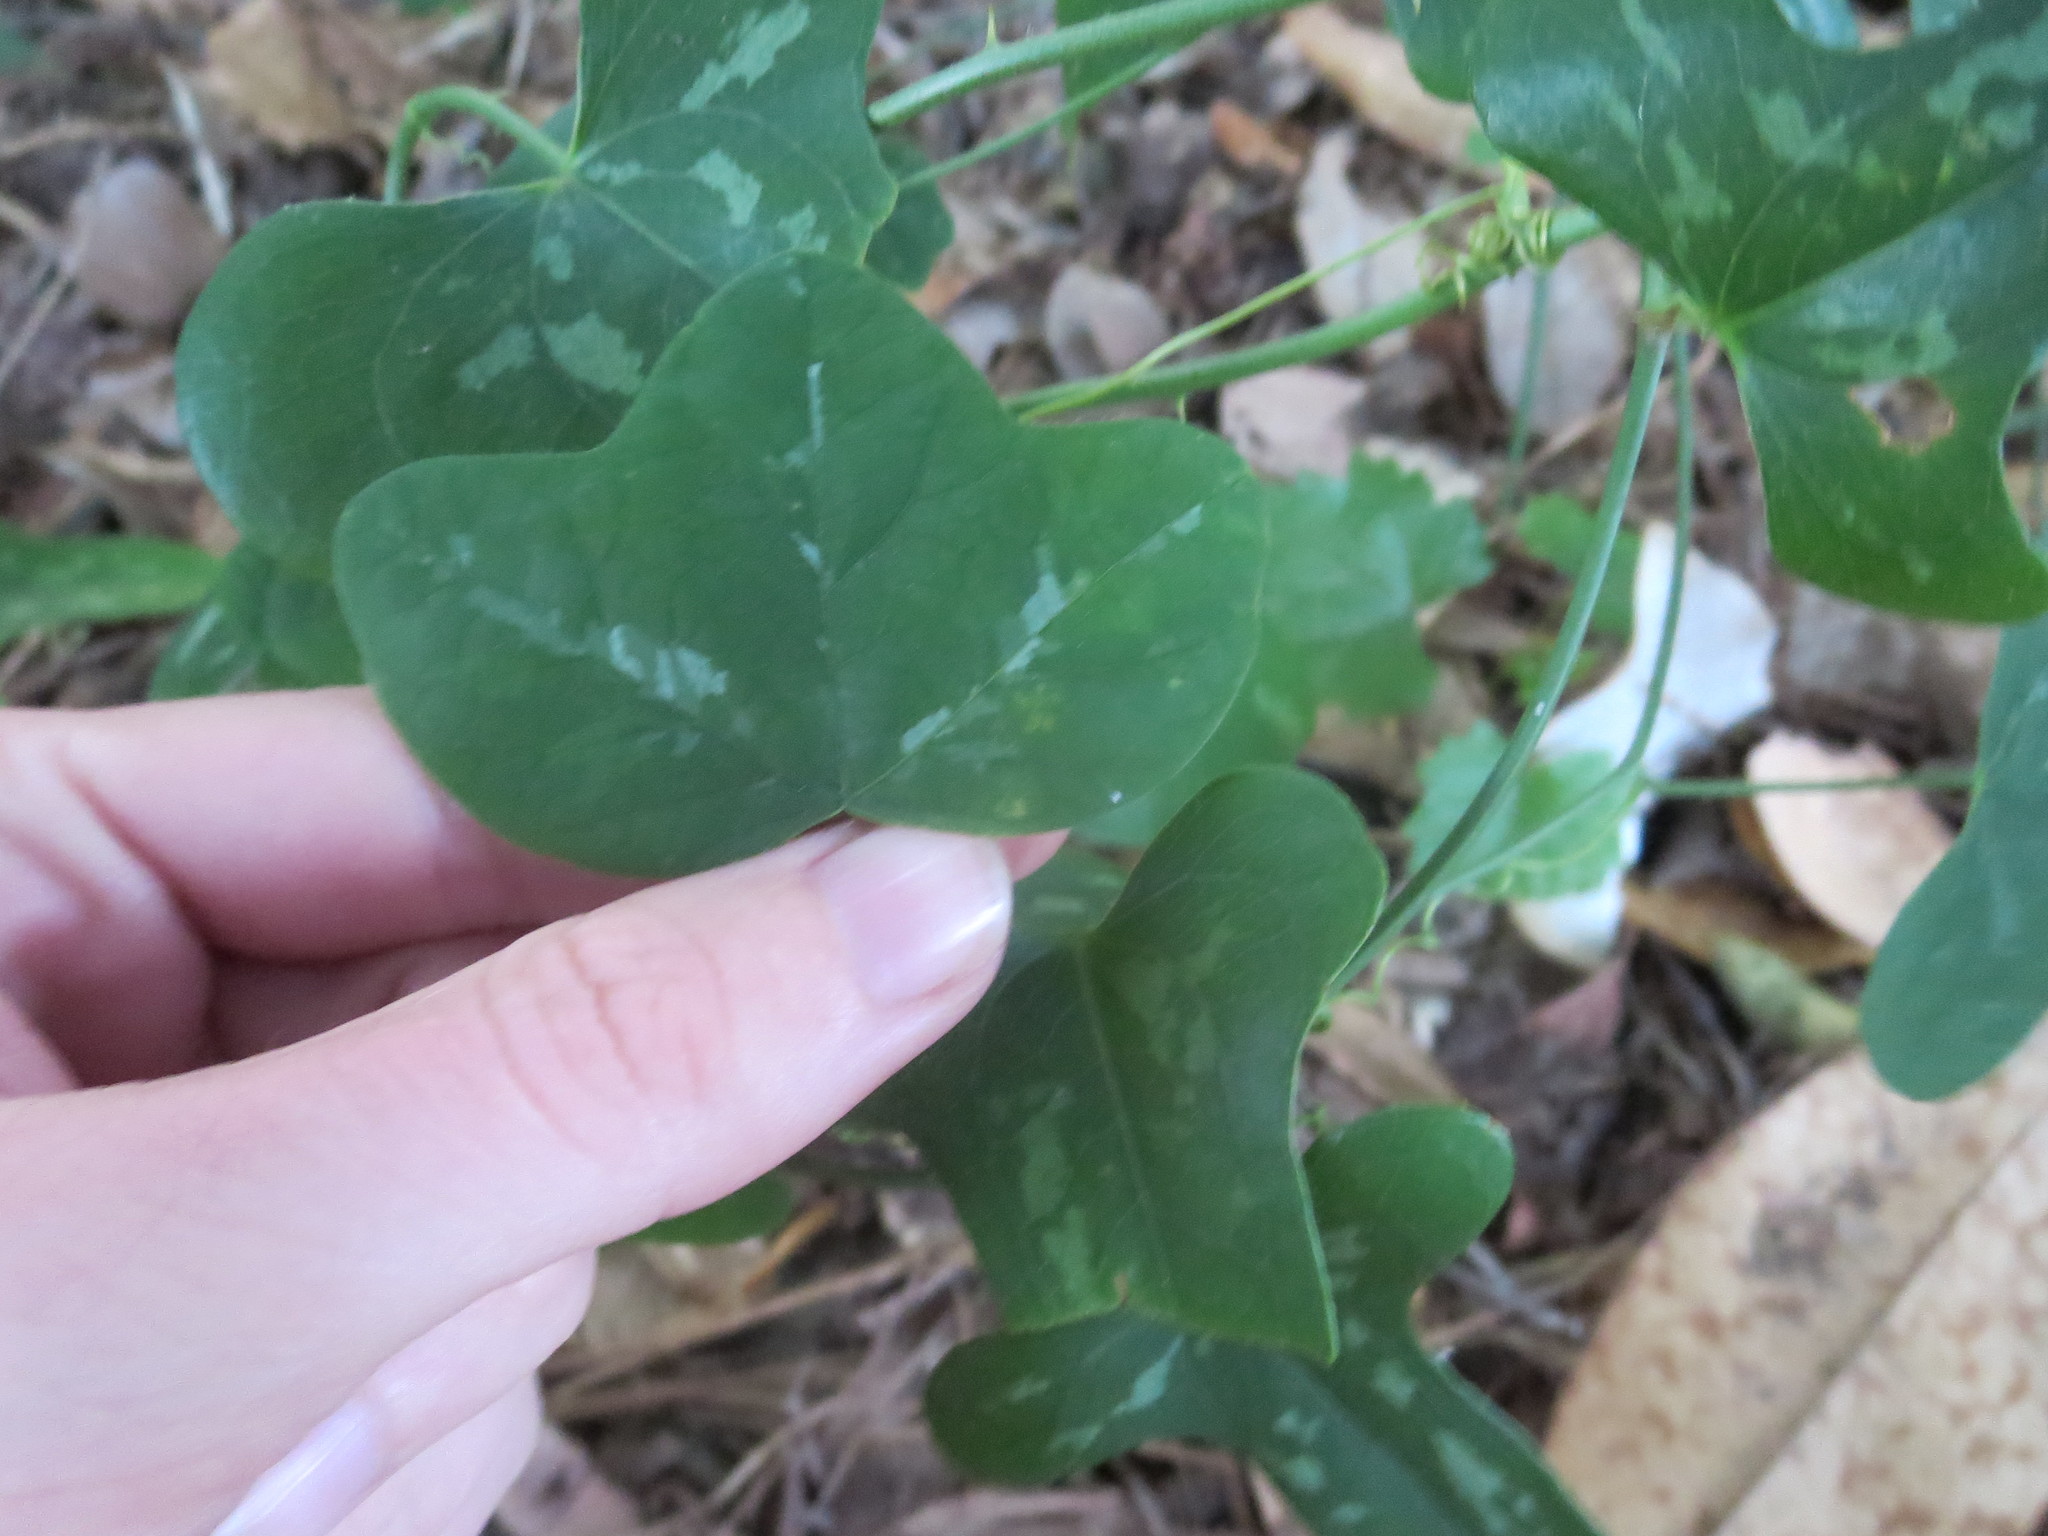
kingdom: Plantae
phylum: Tracheophyta
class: Magnoliopsida
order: Malpighiales
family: Passifloraceae
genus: Passiflora
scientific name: Passiflora lutea
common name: Yellow passionflower
